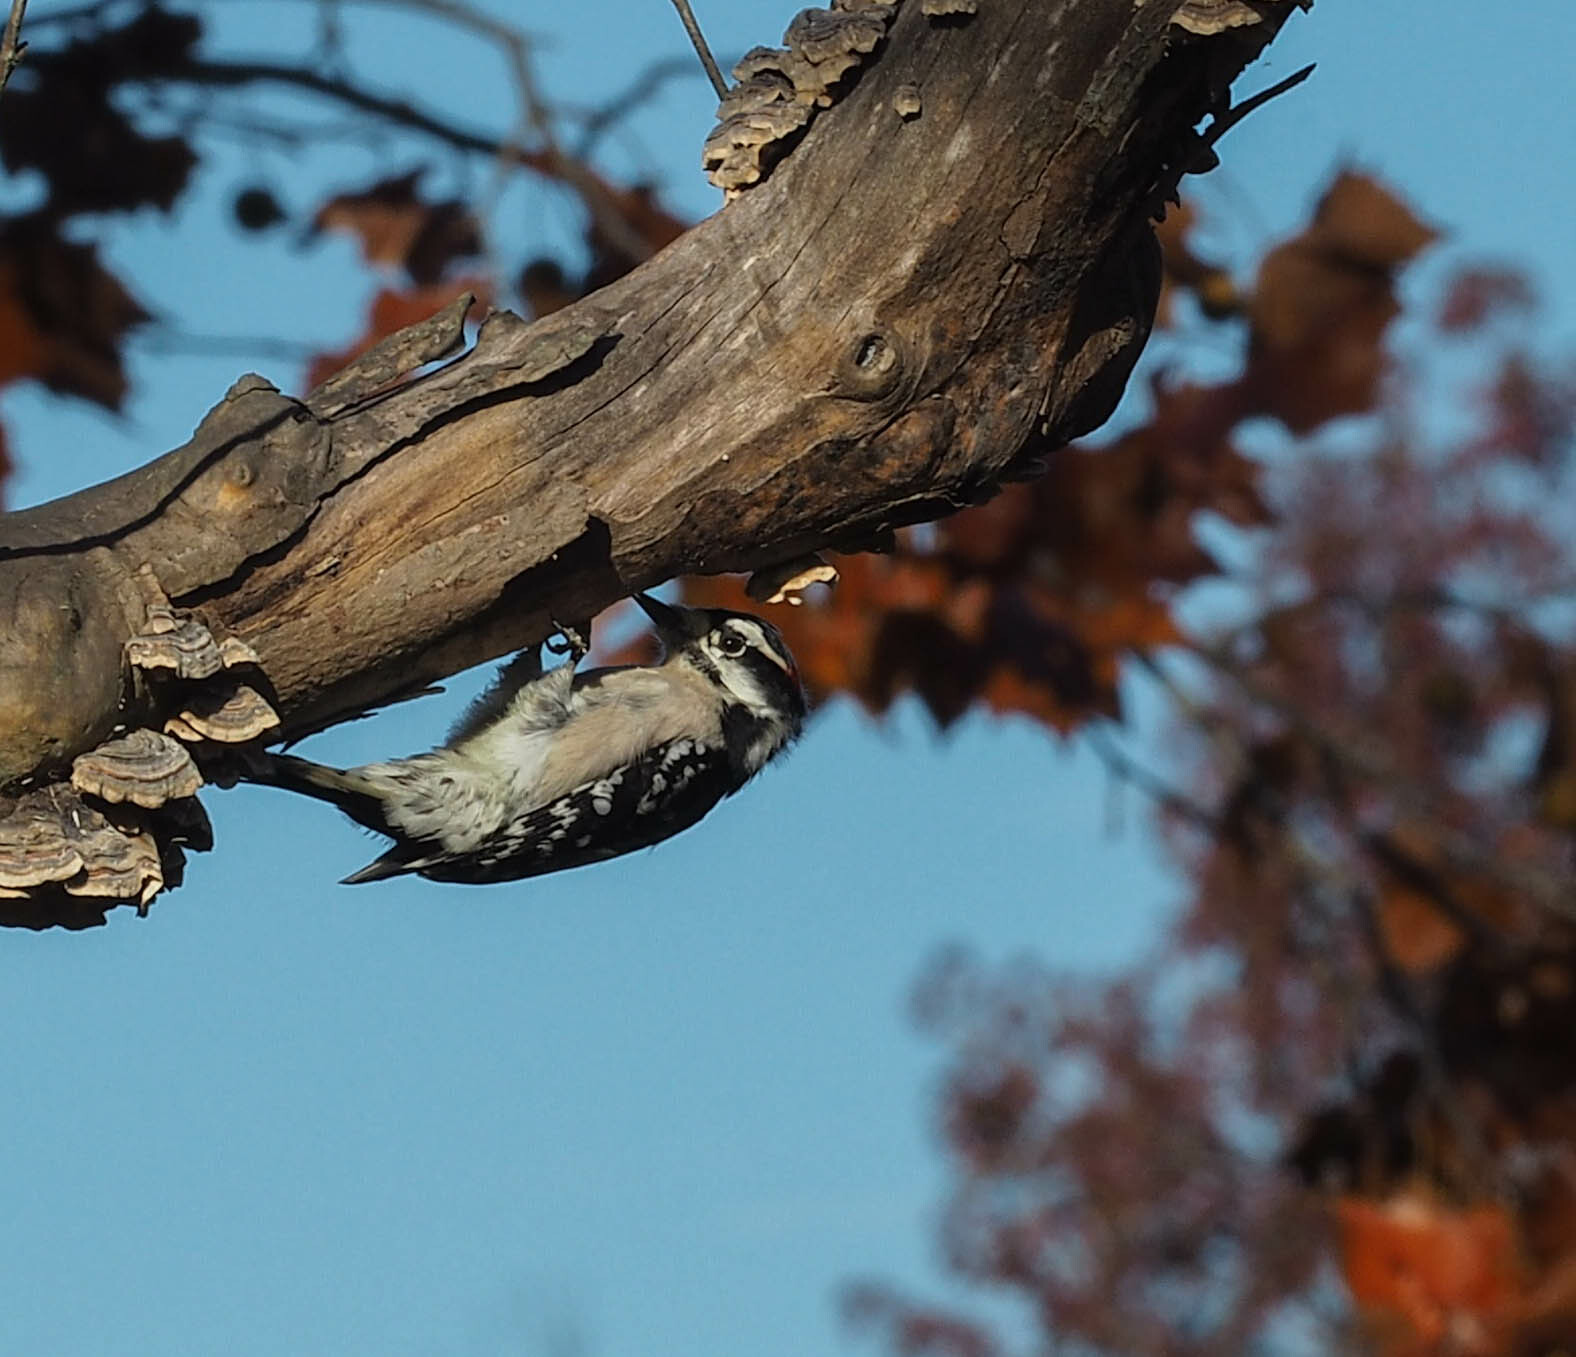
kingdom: Animalia
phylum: Chordata
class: Aves
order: Piciformes
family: Picidae
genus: Dryobates
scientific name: Dryobates pubescens
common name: Downy woodpecker
